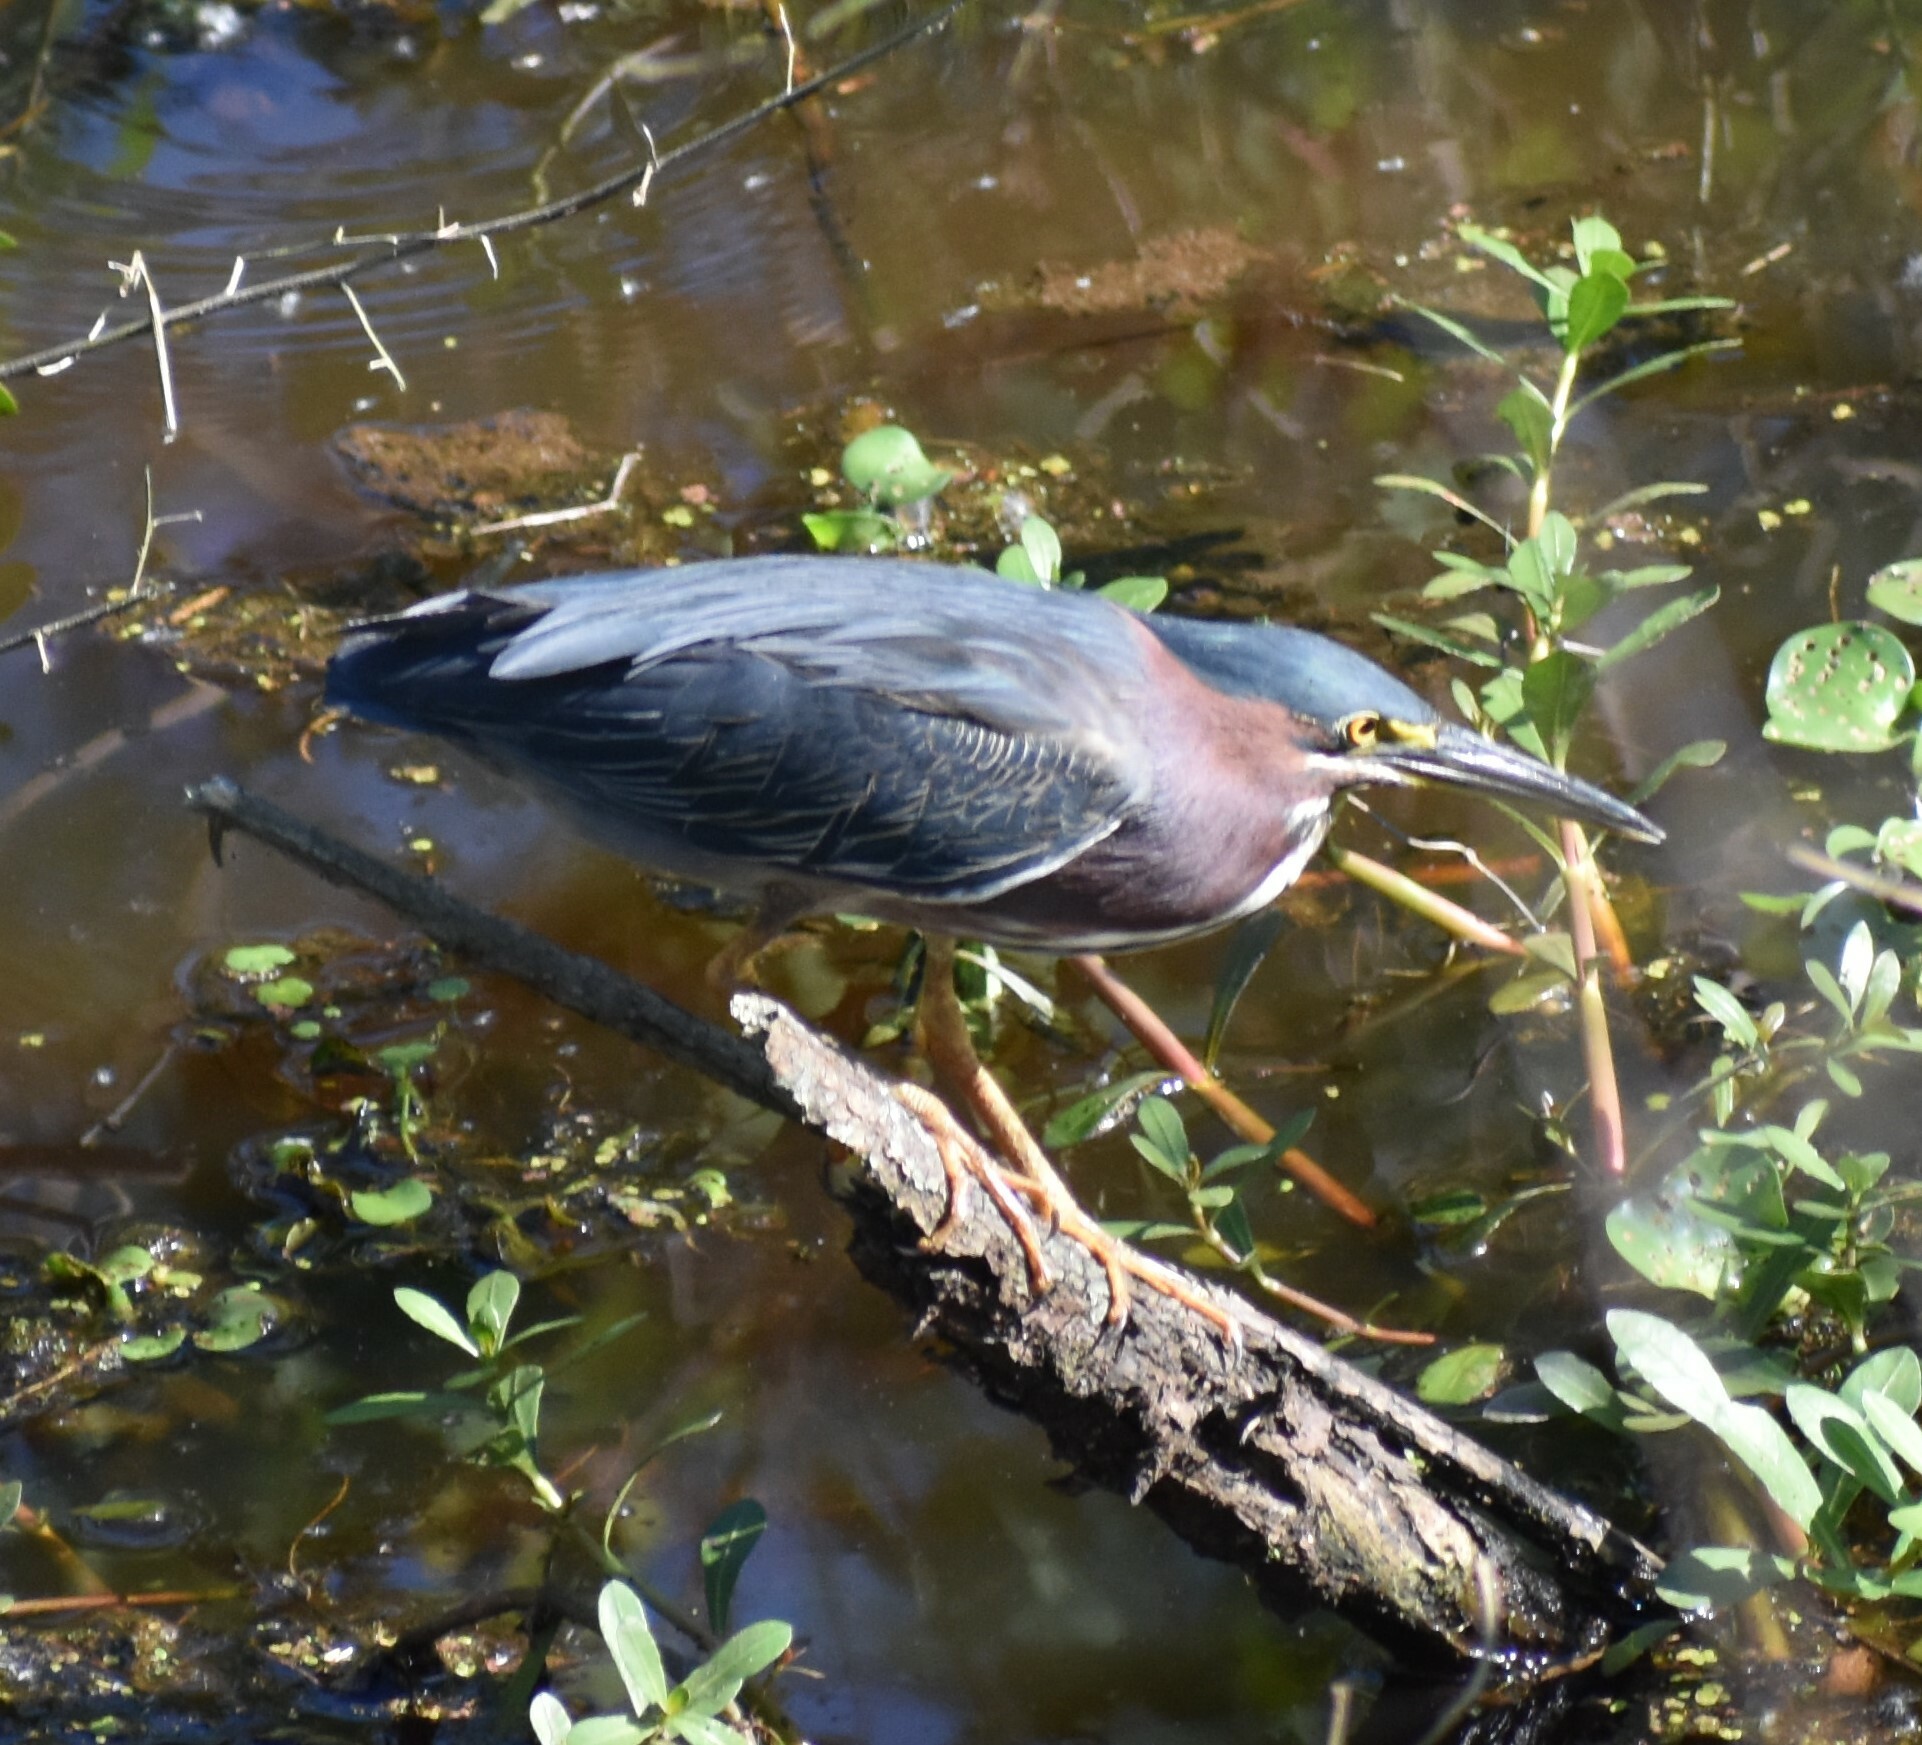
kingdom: Animalia
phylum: Chordata
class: Aves
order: Pelecaniformes
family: Ardeidae
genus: Butorides
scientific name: Butorides virescens
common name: Green heron
